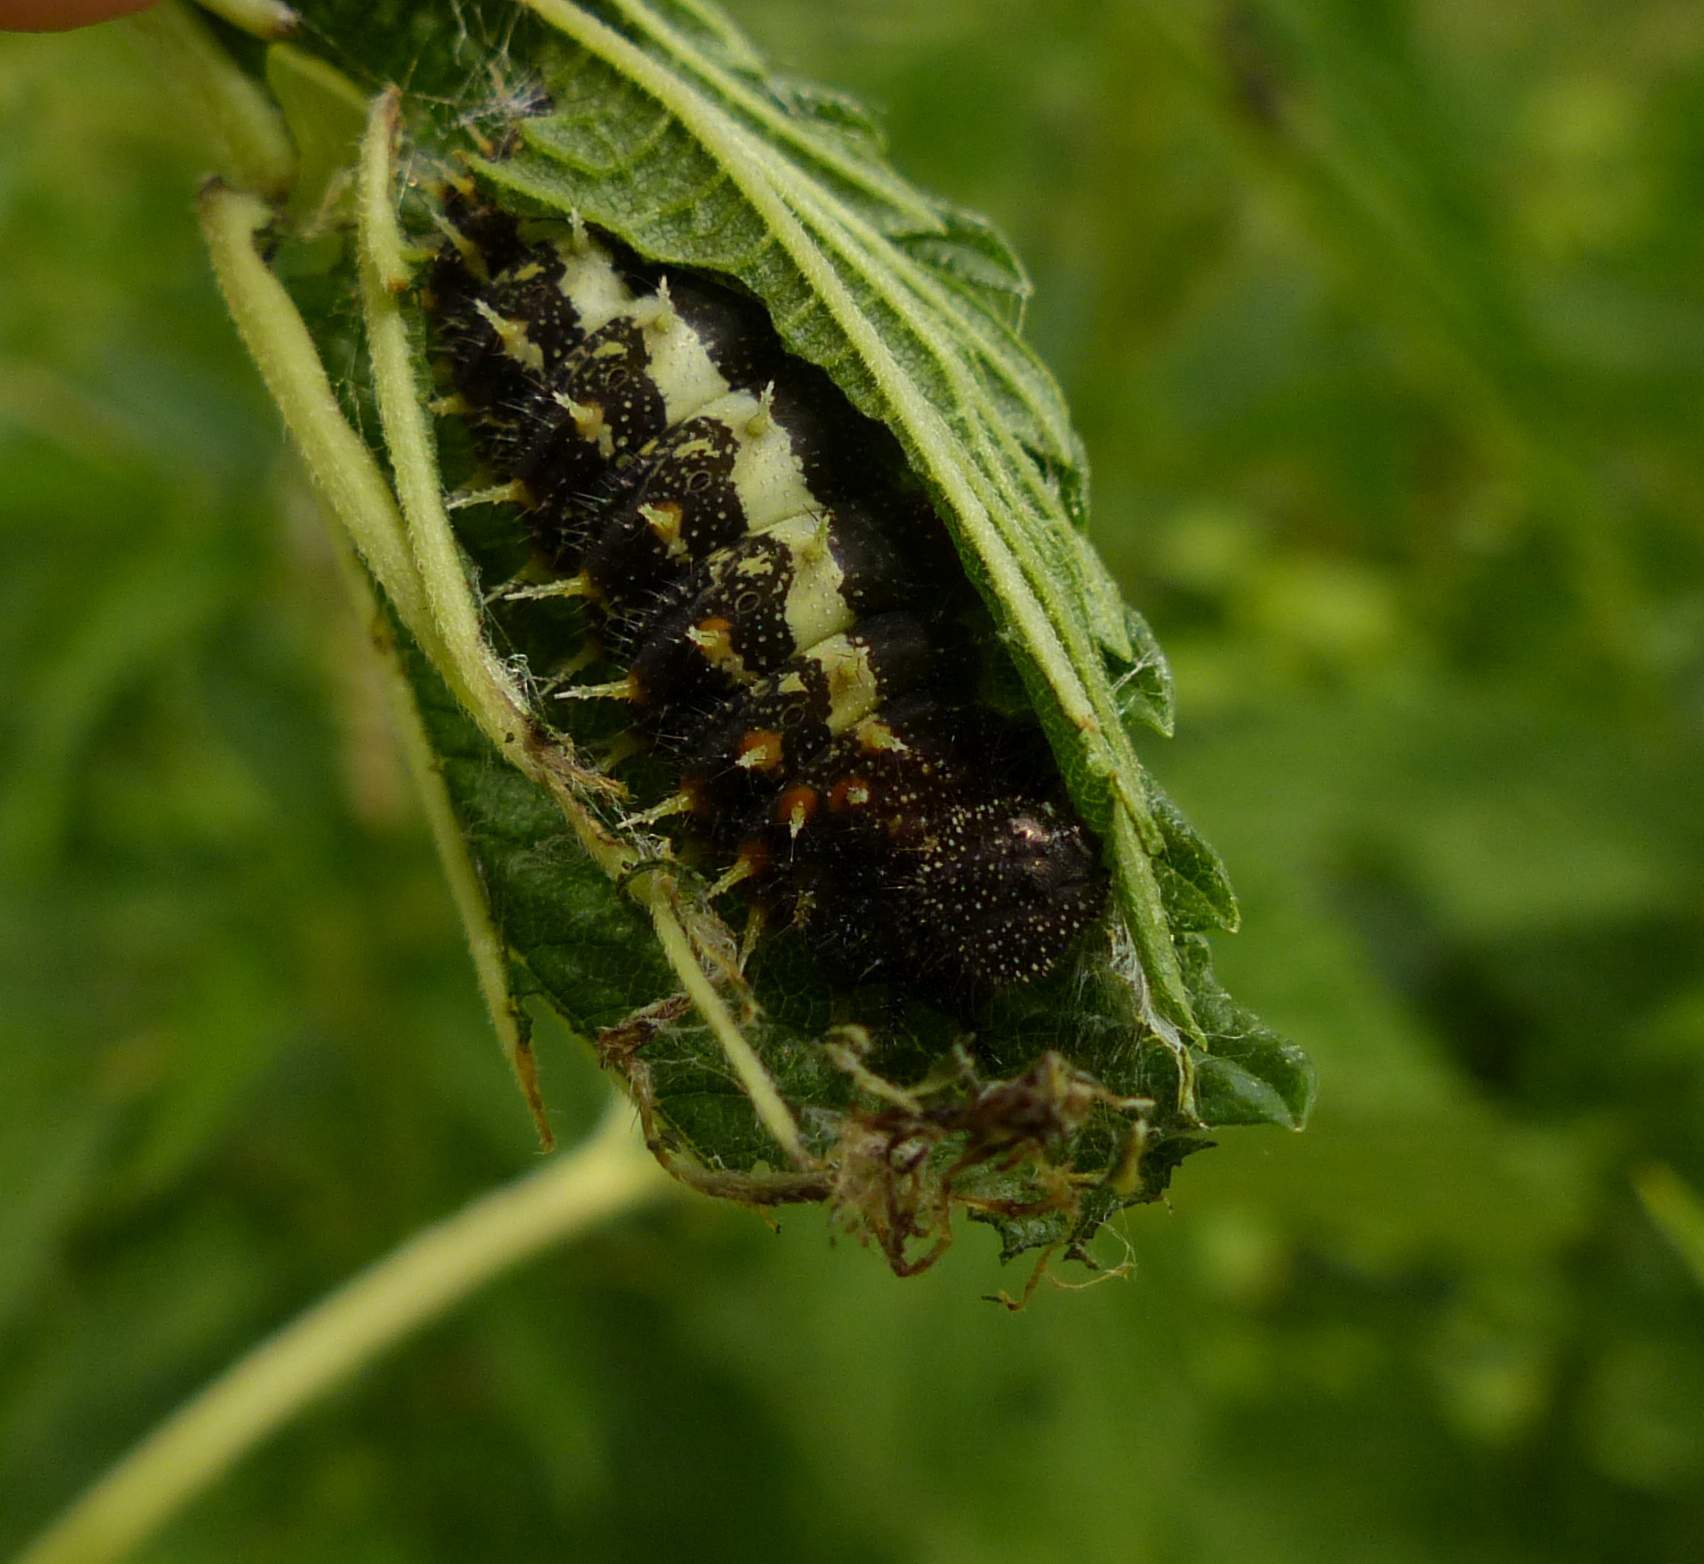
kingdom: Animalia
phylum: Arthropoda
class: Insecta
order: Lepidoptera
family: Nymphalidae
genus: Vanessa
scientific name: Vanessa atalanta
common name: Red admiral
